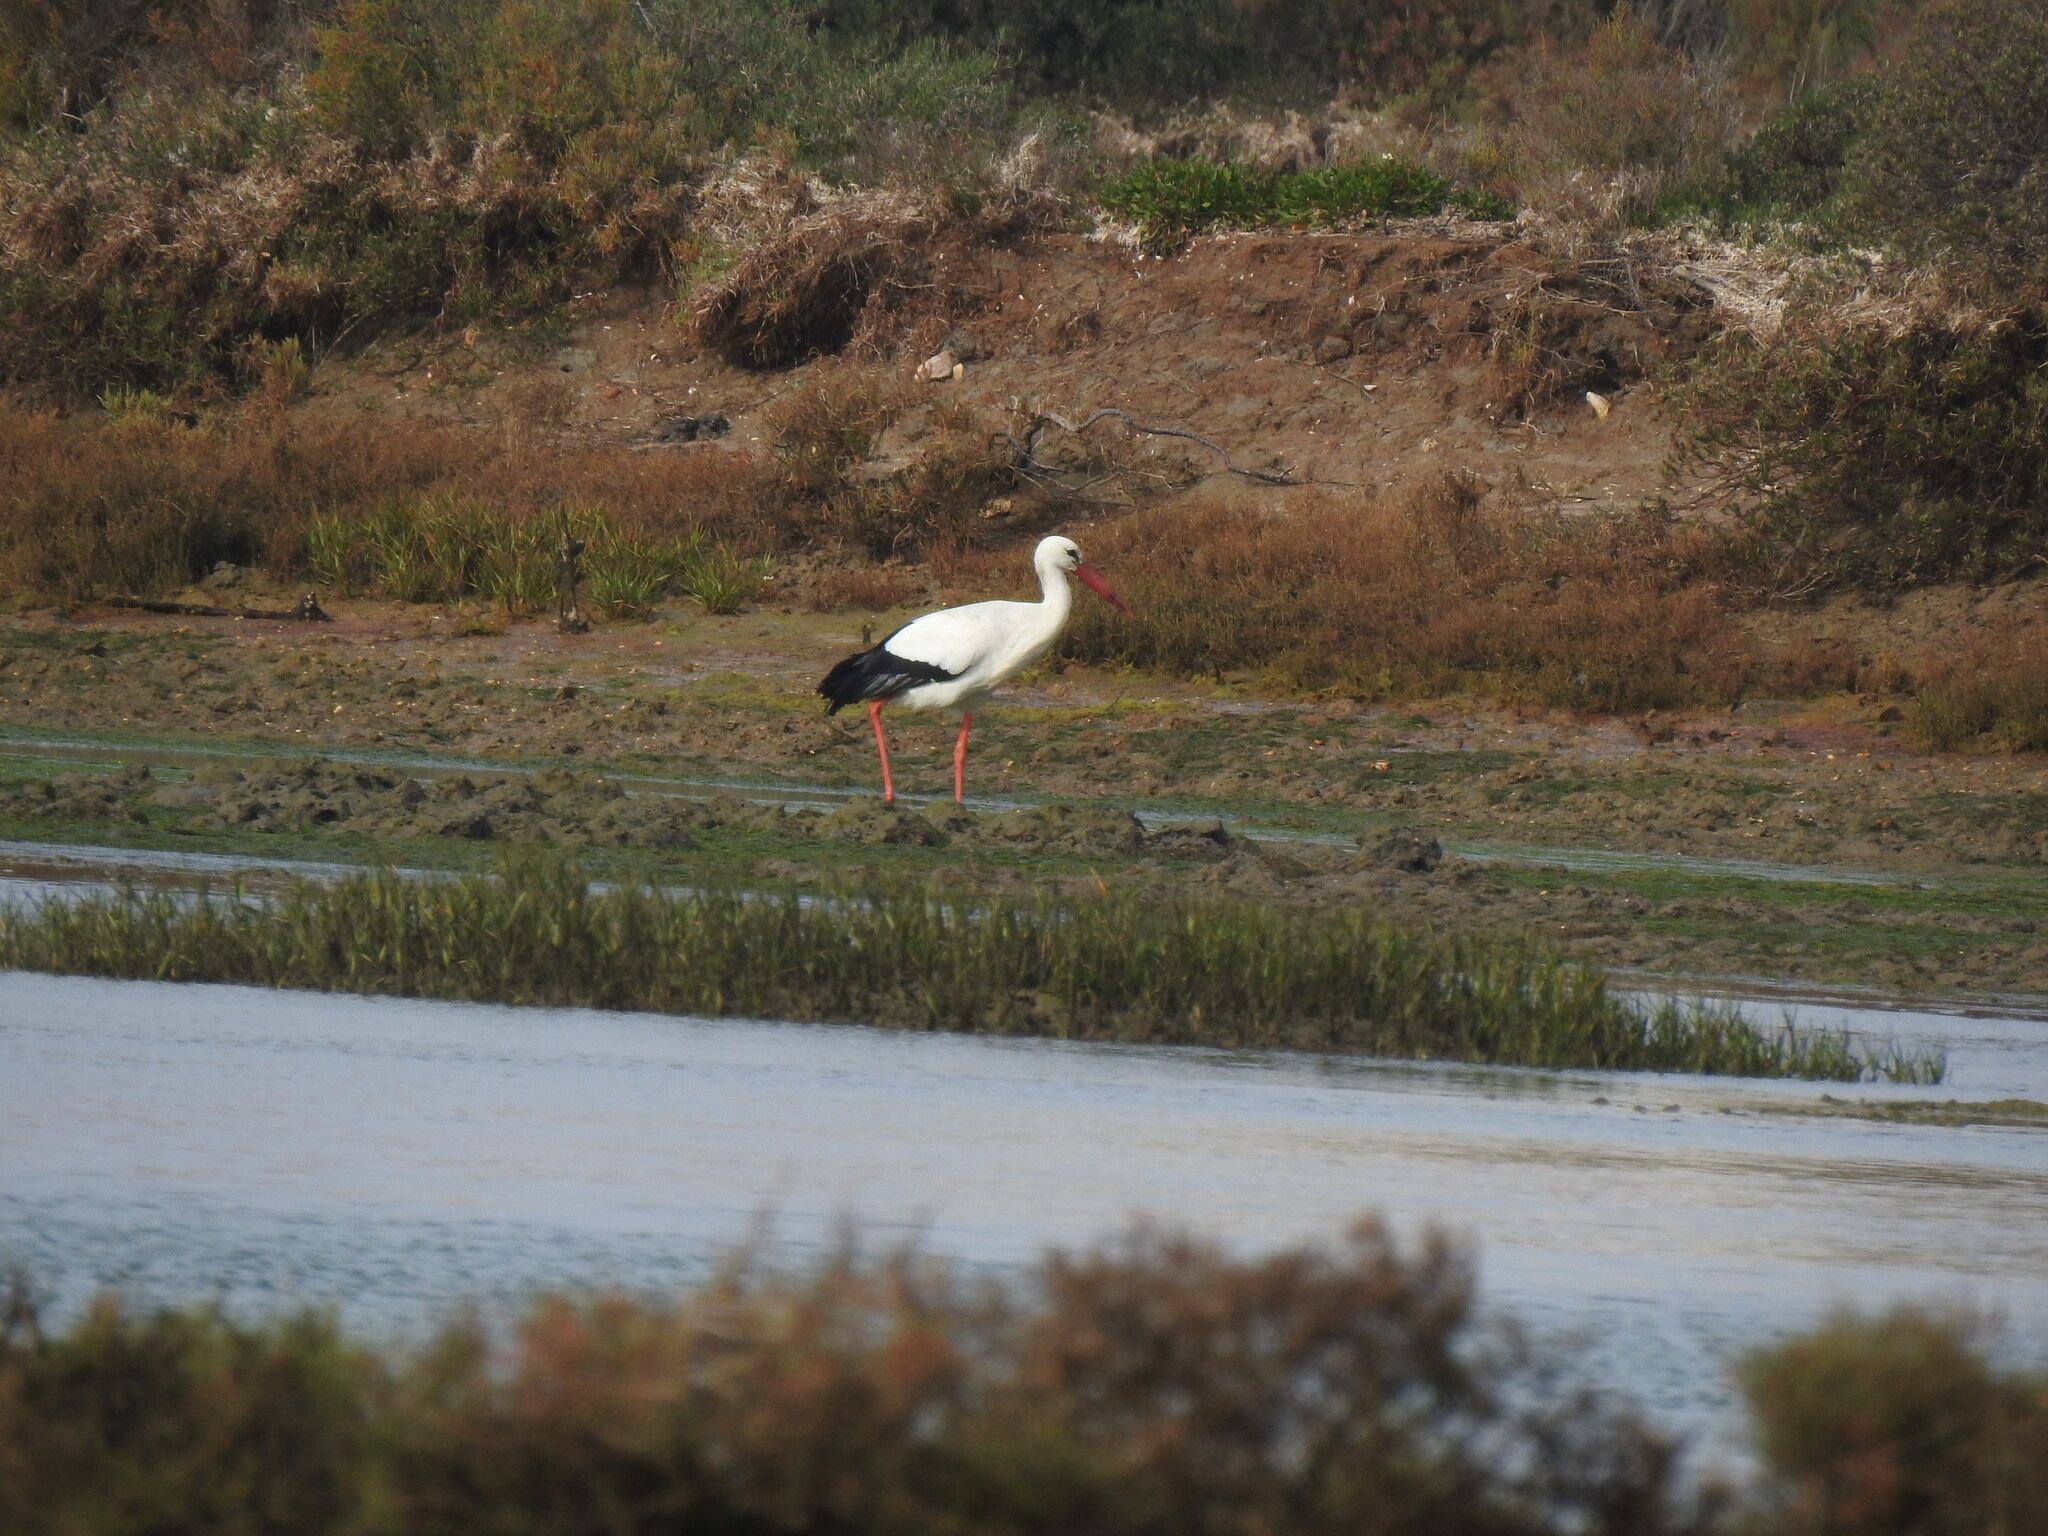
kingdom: Animalia
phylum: Chordata
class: Aves
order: Ciconiiformes
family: Ciconiidae
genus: Ciconia
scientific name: Ciconia ciconia
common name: White stork
